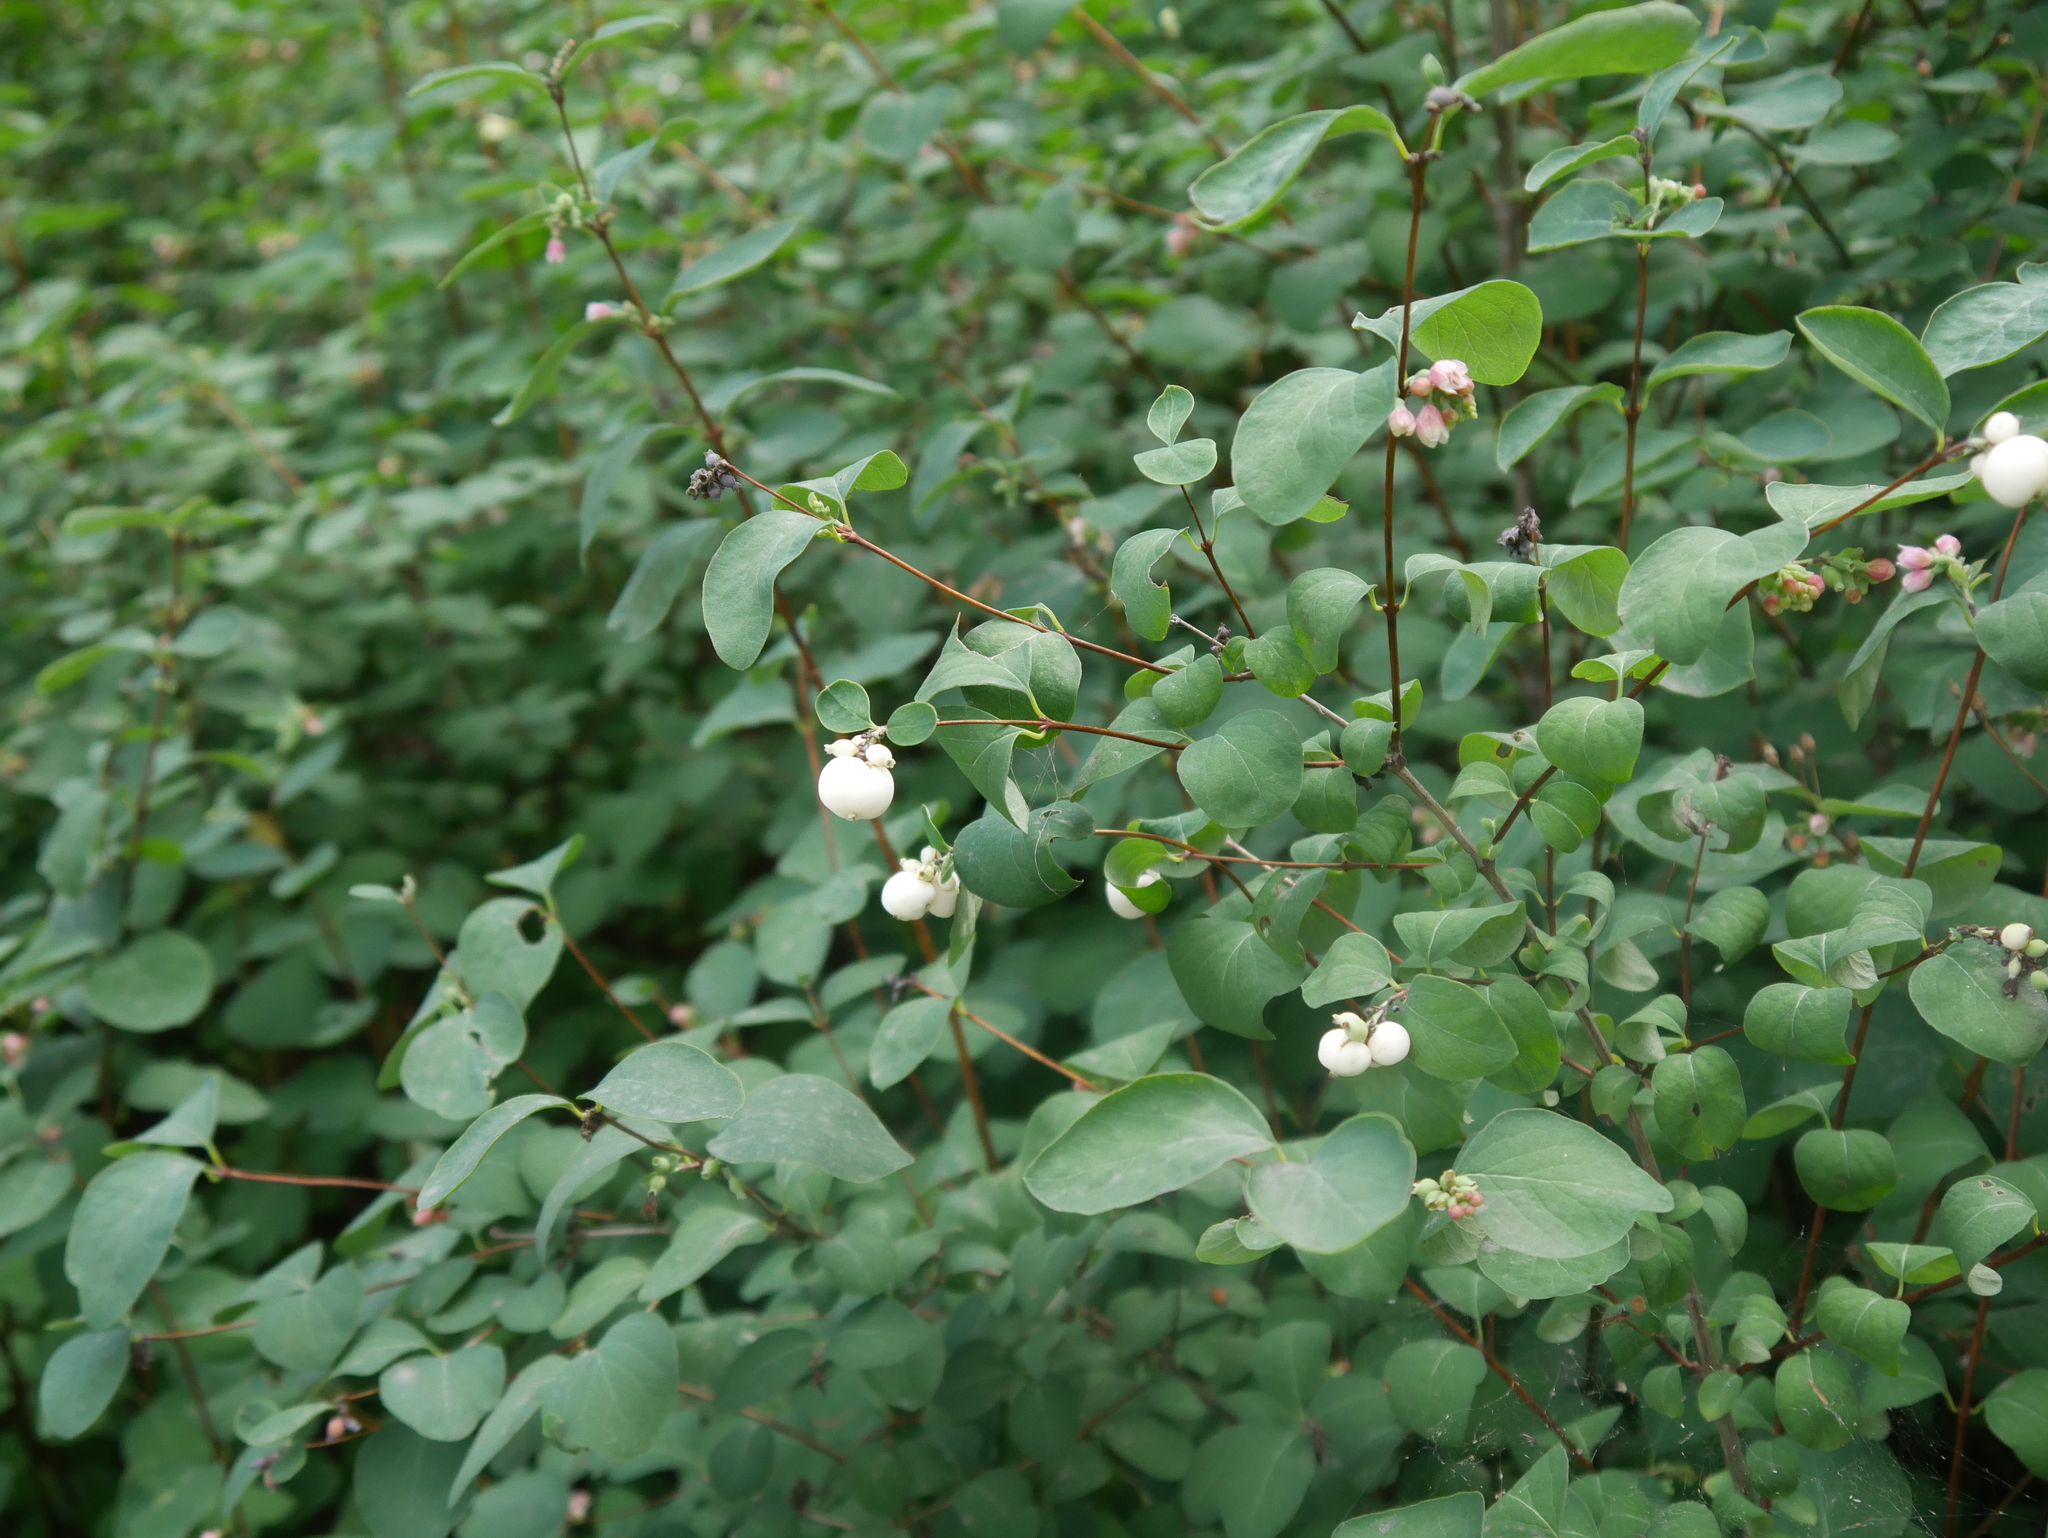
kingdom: Plantae
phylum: Tracheophyta
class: Magnoliopsida
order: Dipsacales
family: Caprifoliaceae
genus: Symphoricarpos
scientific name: Symphoricarpos albus
